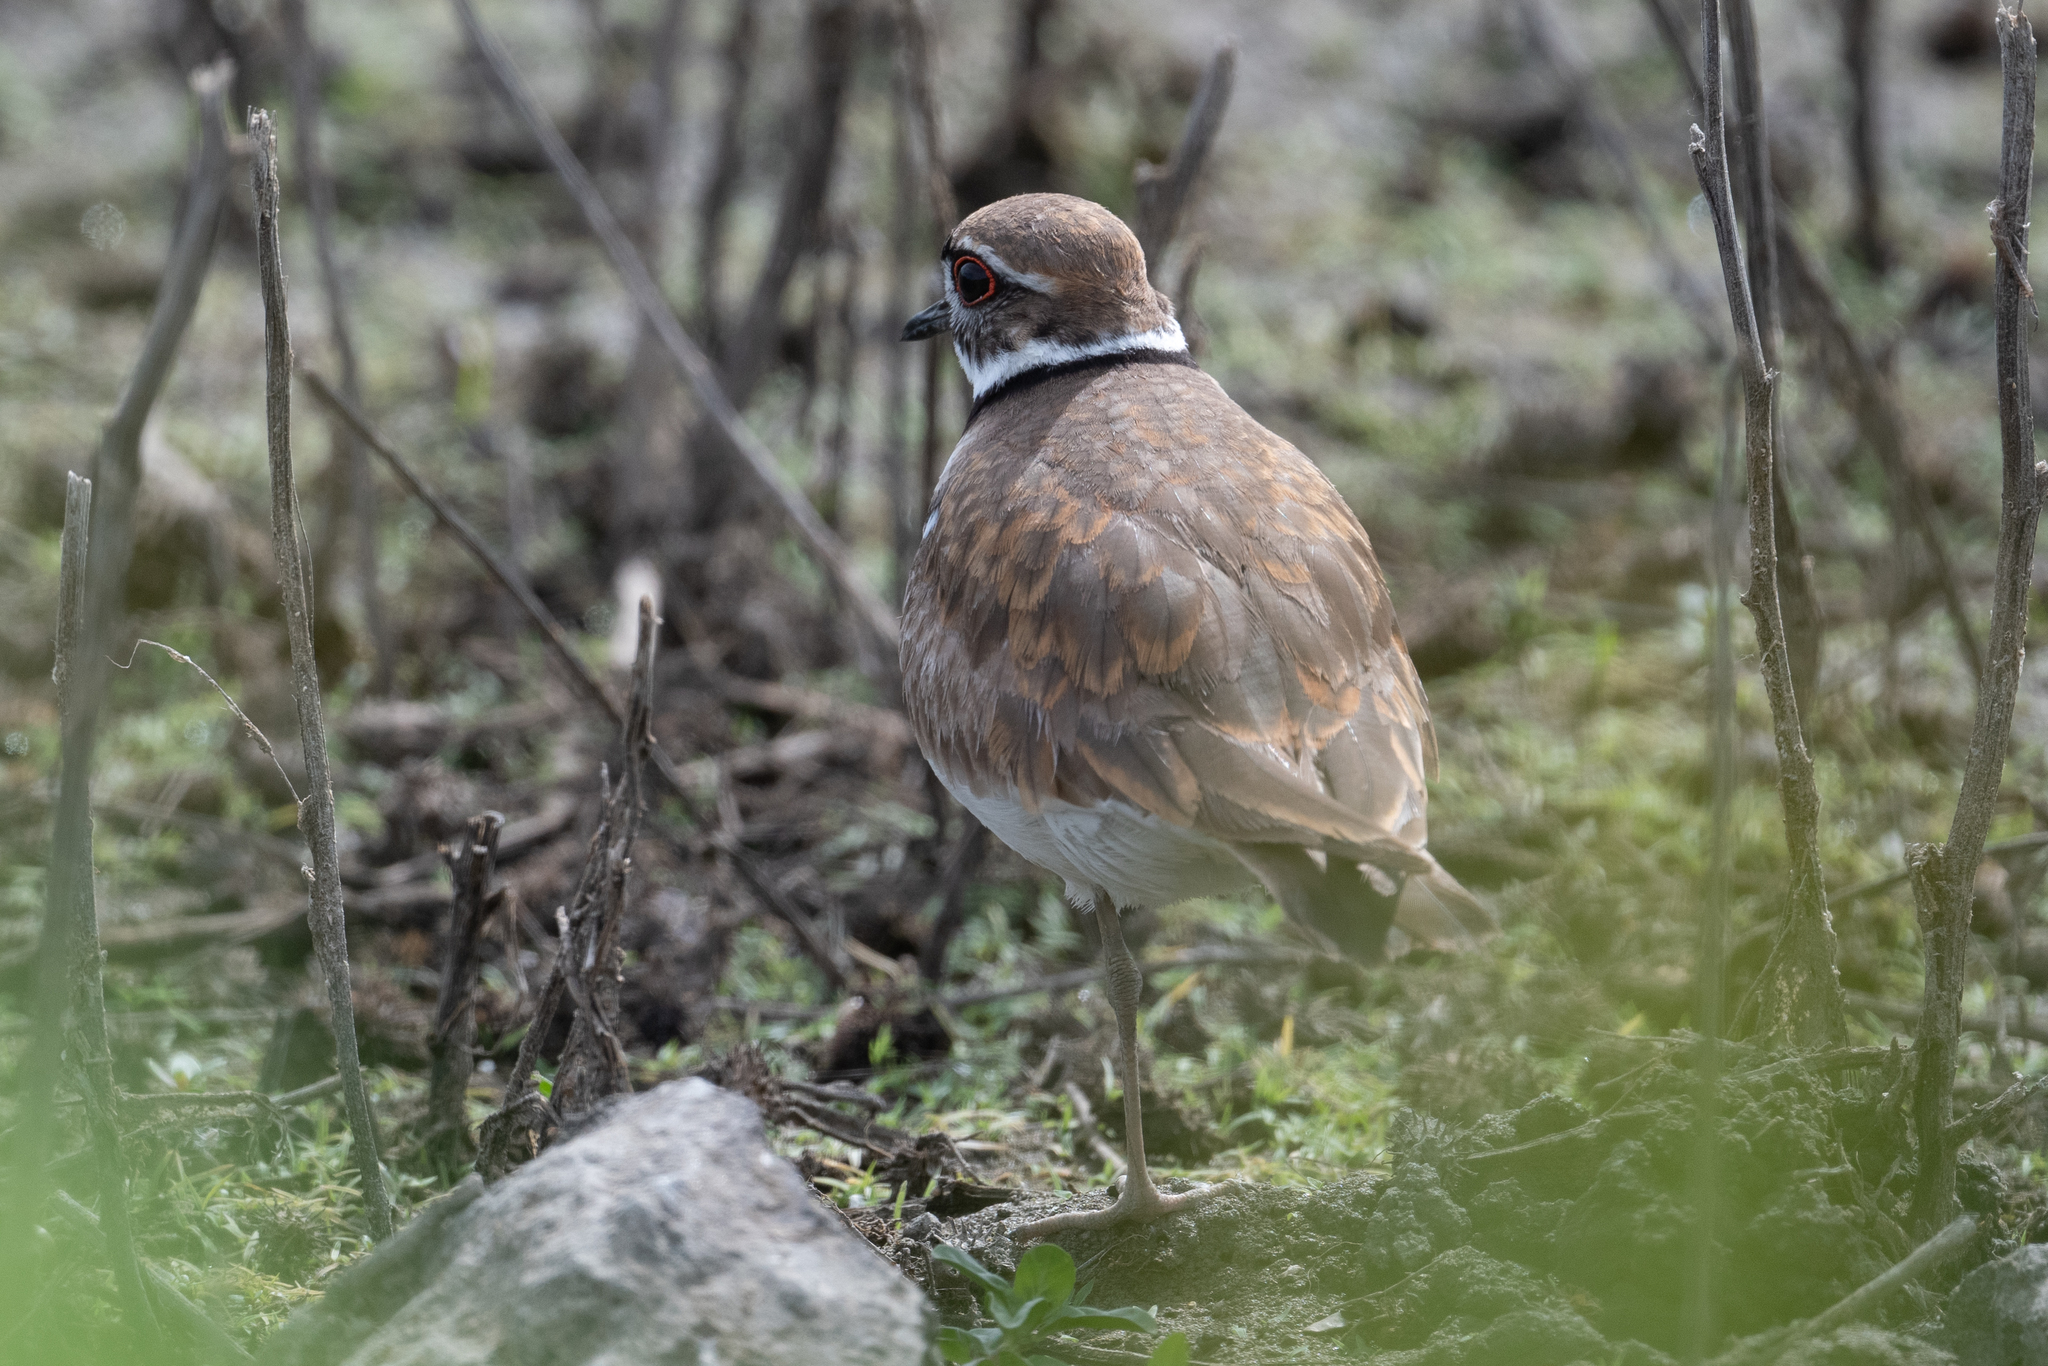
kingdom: Animalia
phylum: Chordata
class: Aves
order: Charadriiformes
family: Charadriidae
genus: Charadrius
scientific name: Charadrius vociferus
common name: Killdeer
